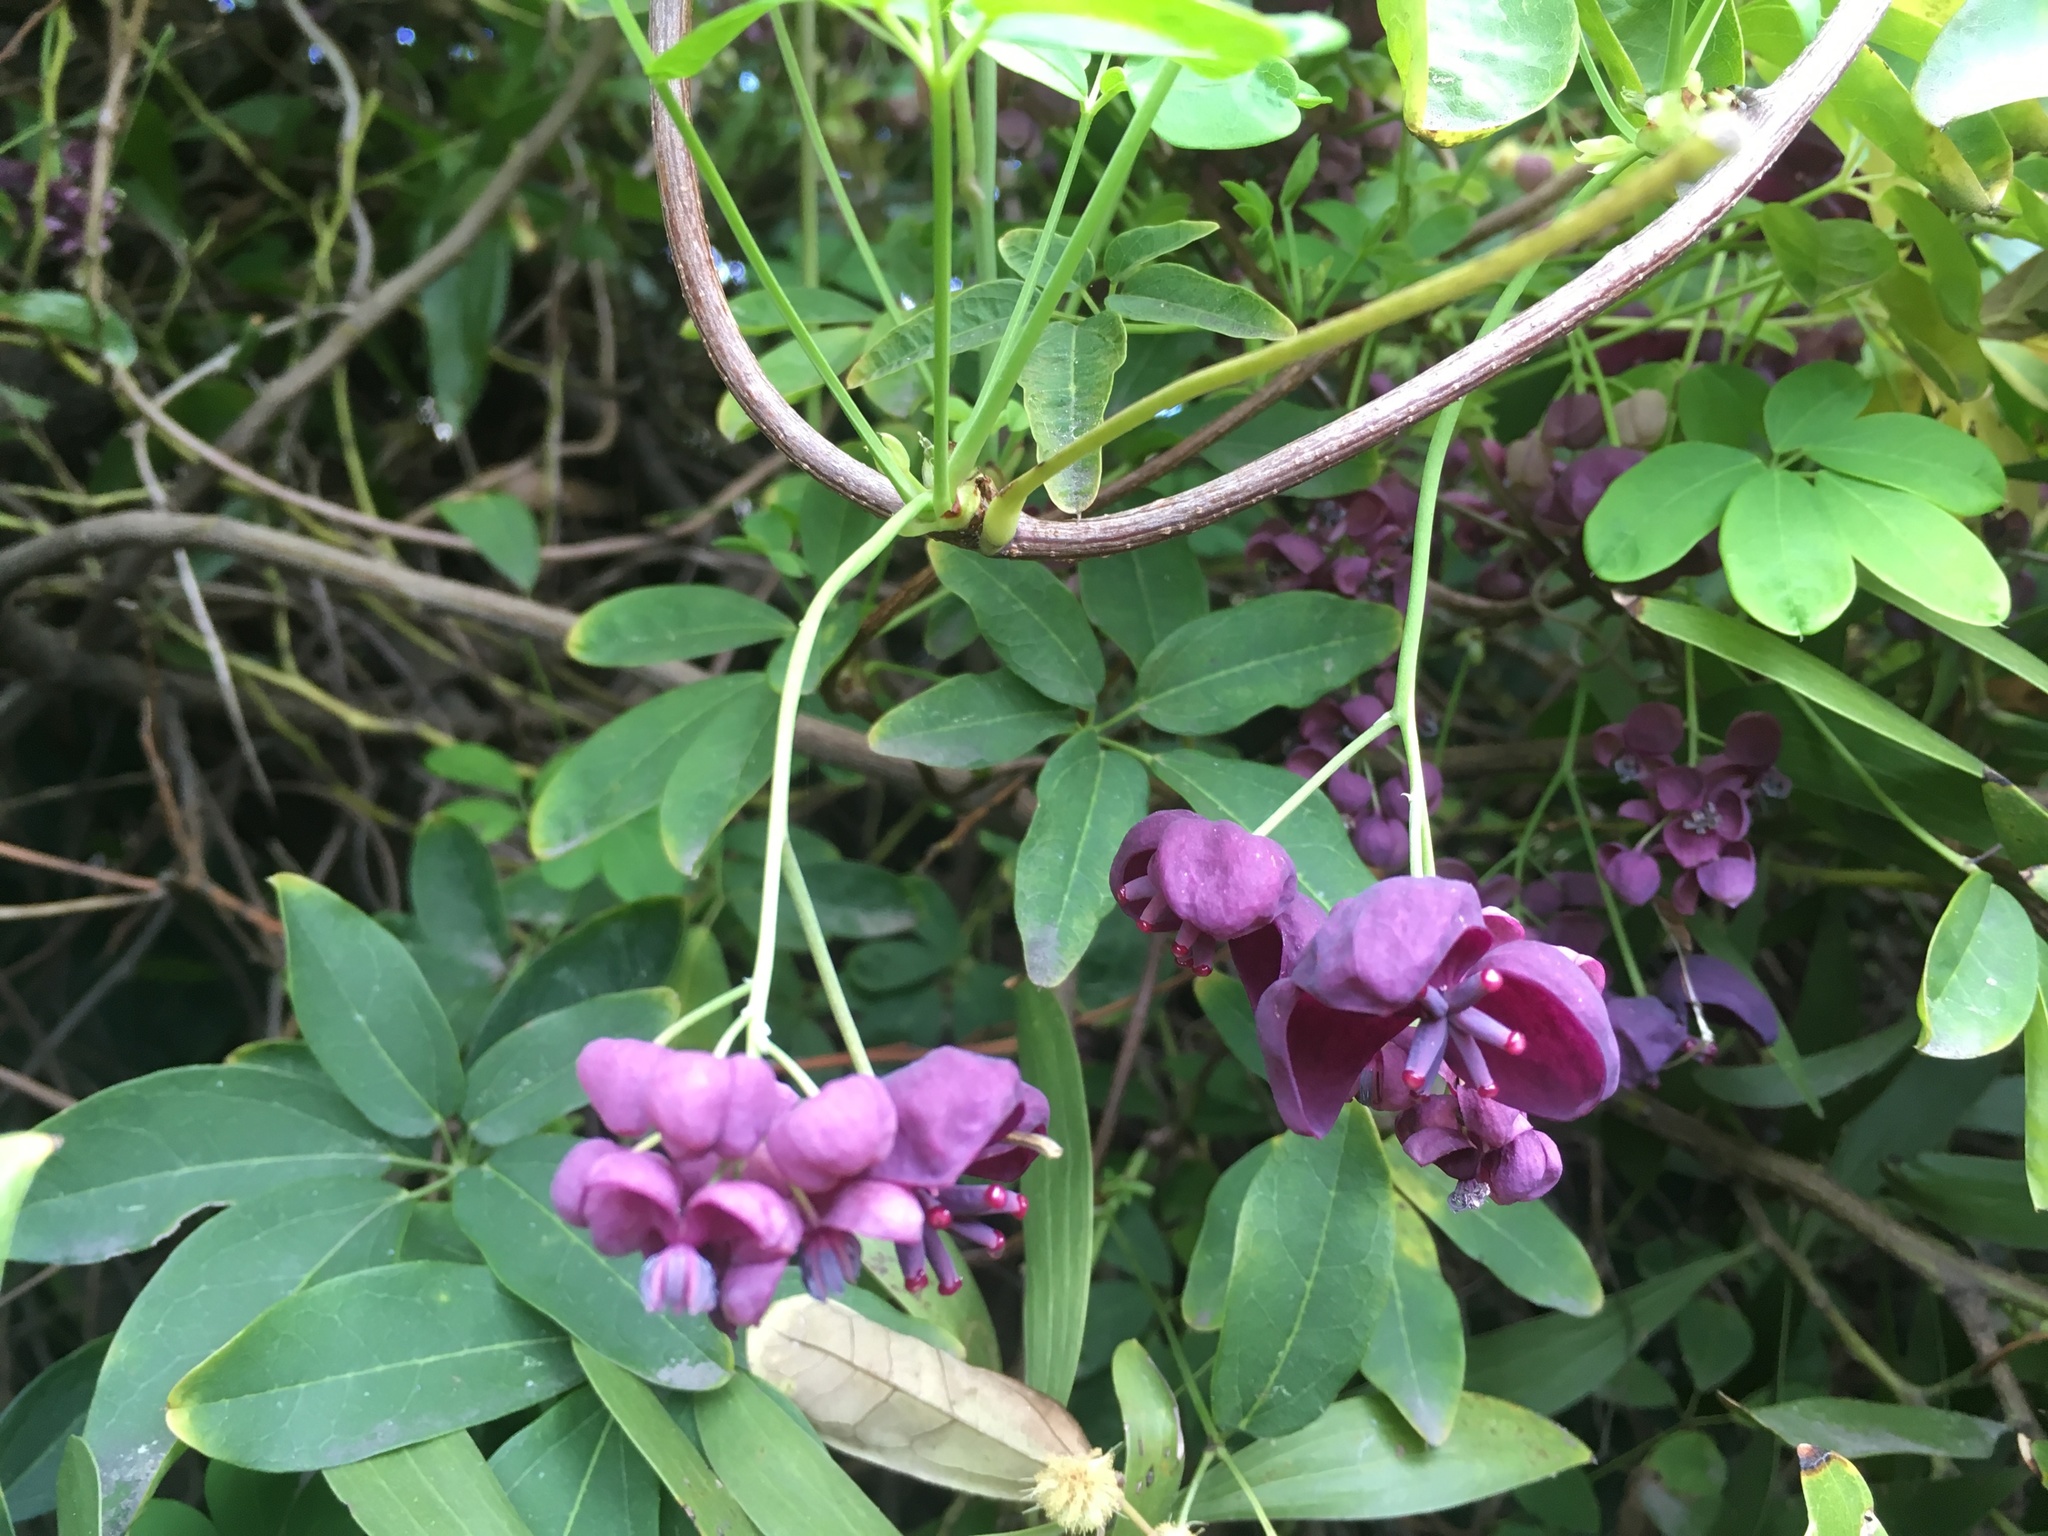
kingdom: Plantae
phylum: Tracheophyta
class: Magnoliopsida
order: Ranunculales
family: Lardizabalaceae
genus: Akebia
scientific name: Akebia quinata
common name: Five-leaf akebia
